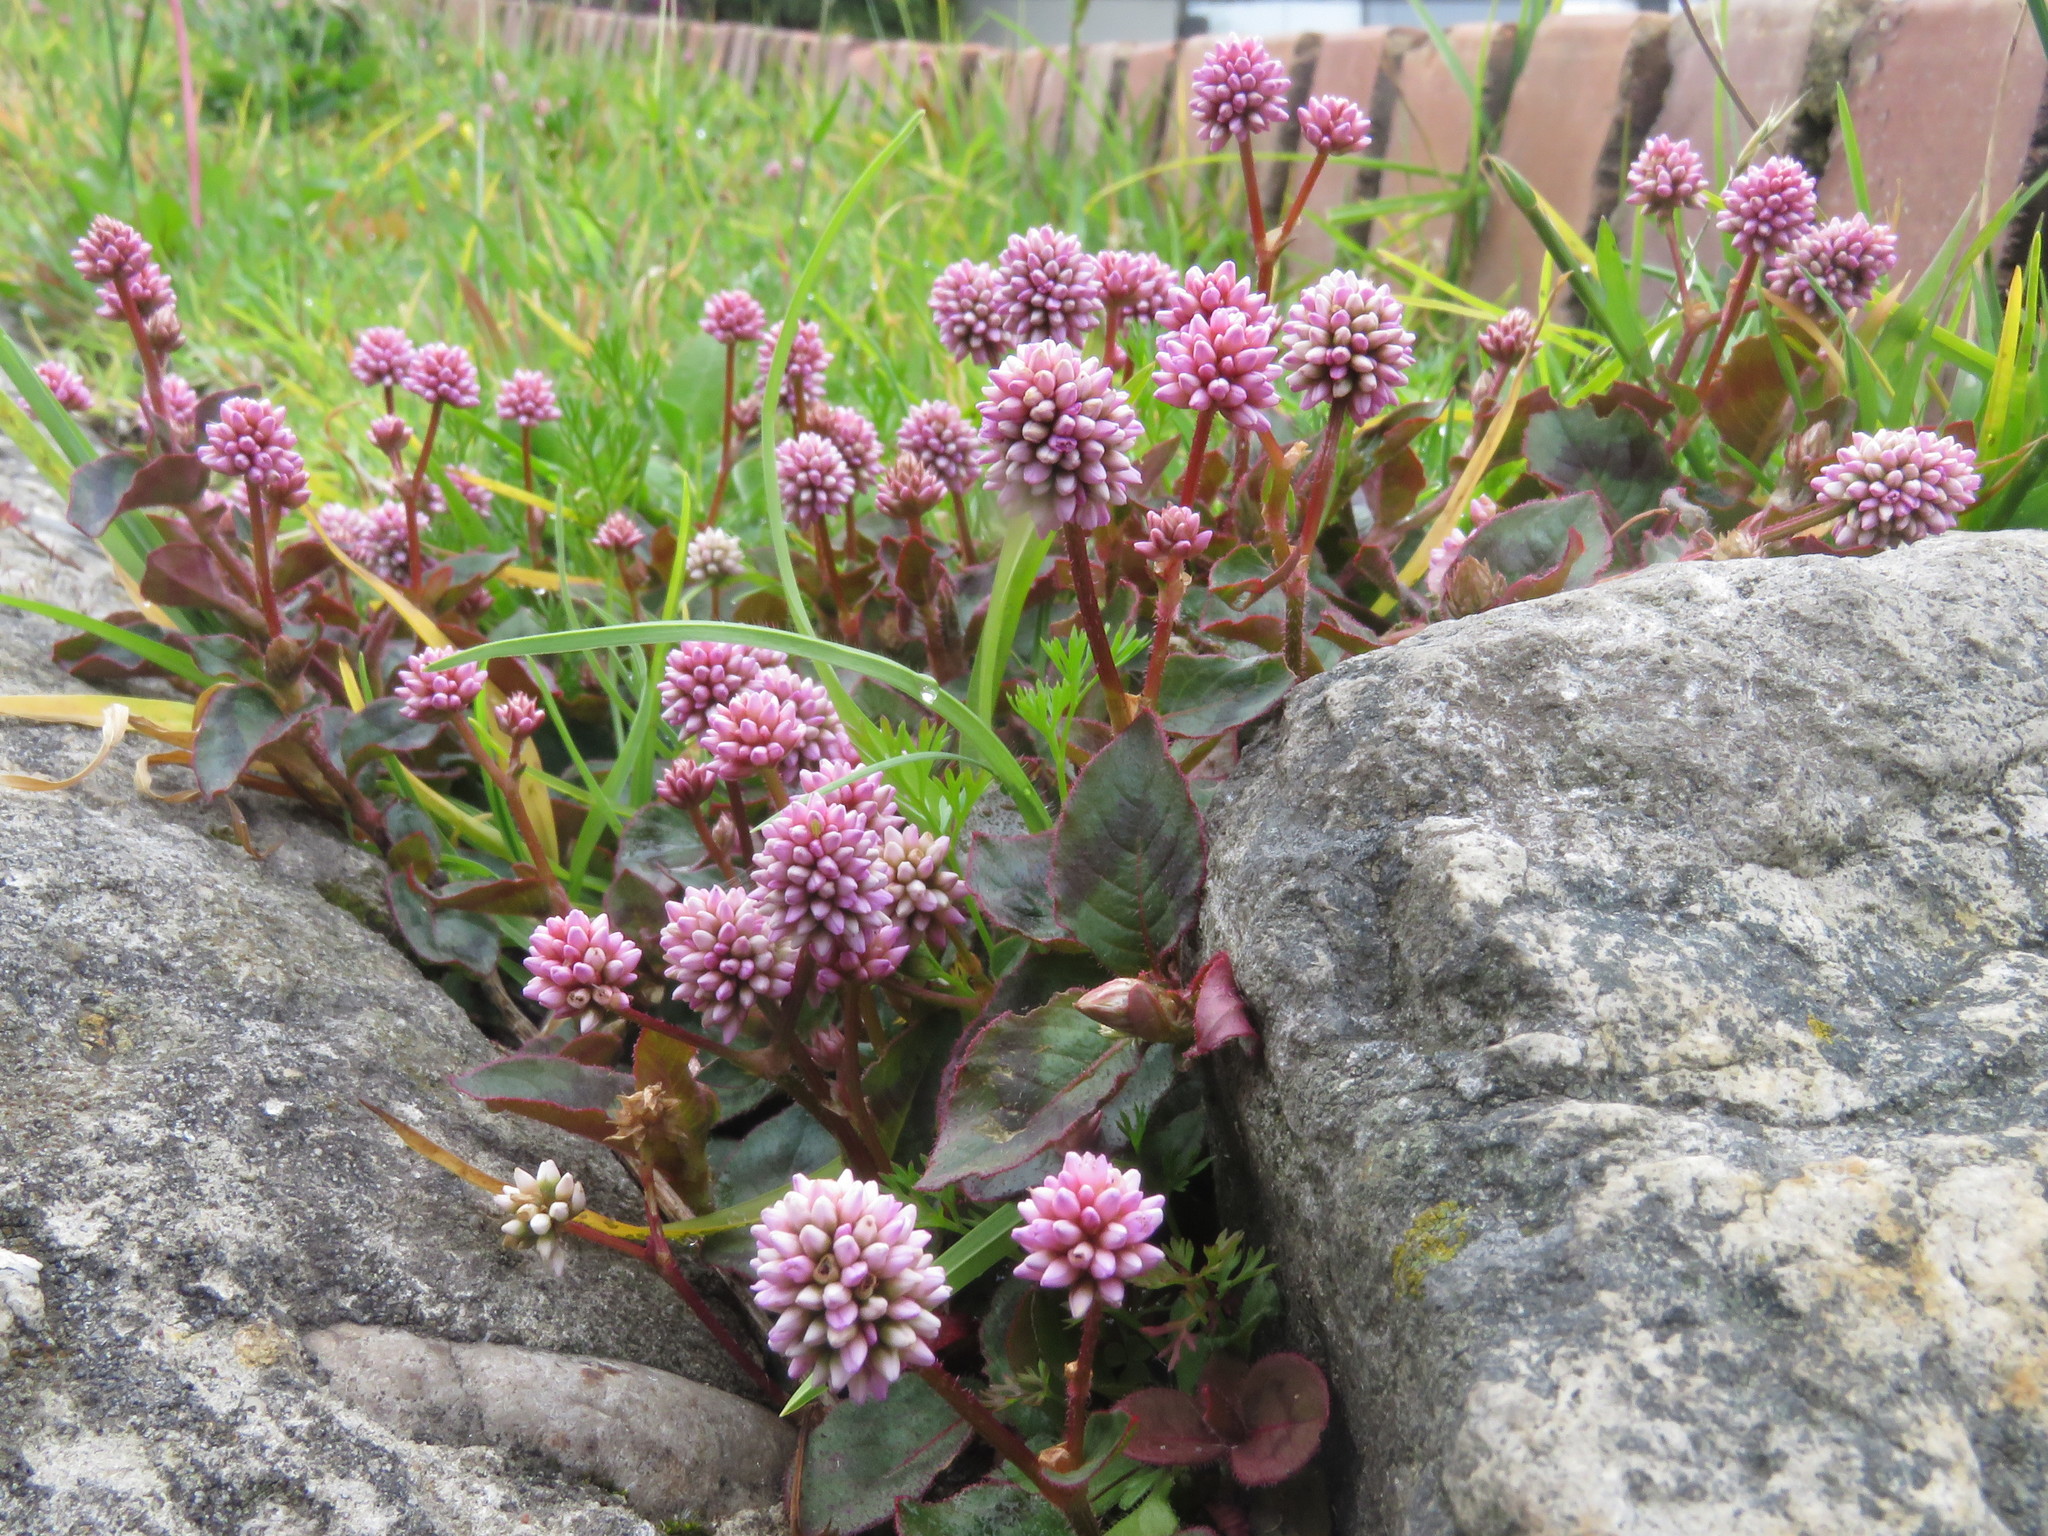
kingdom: Plantae
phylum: Tracheophyta
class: Magnoliopsida
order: Caryophyllales
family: Polygonaceae
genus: Persicaria
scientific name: Persicaria capitata
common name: Pinkhead smartweed
